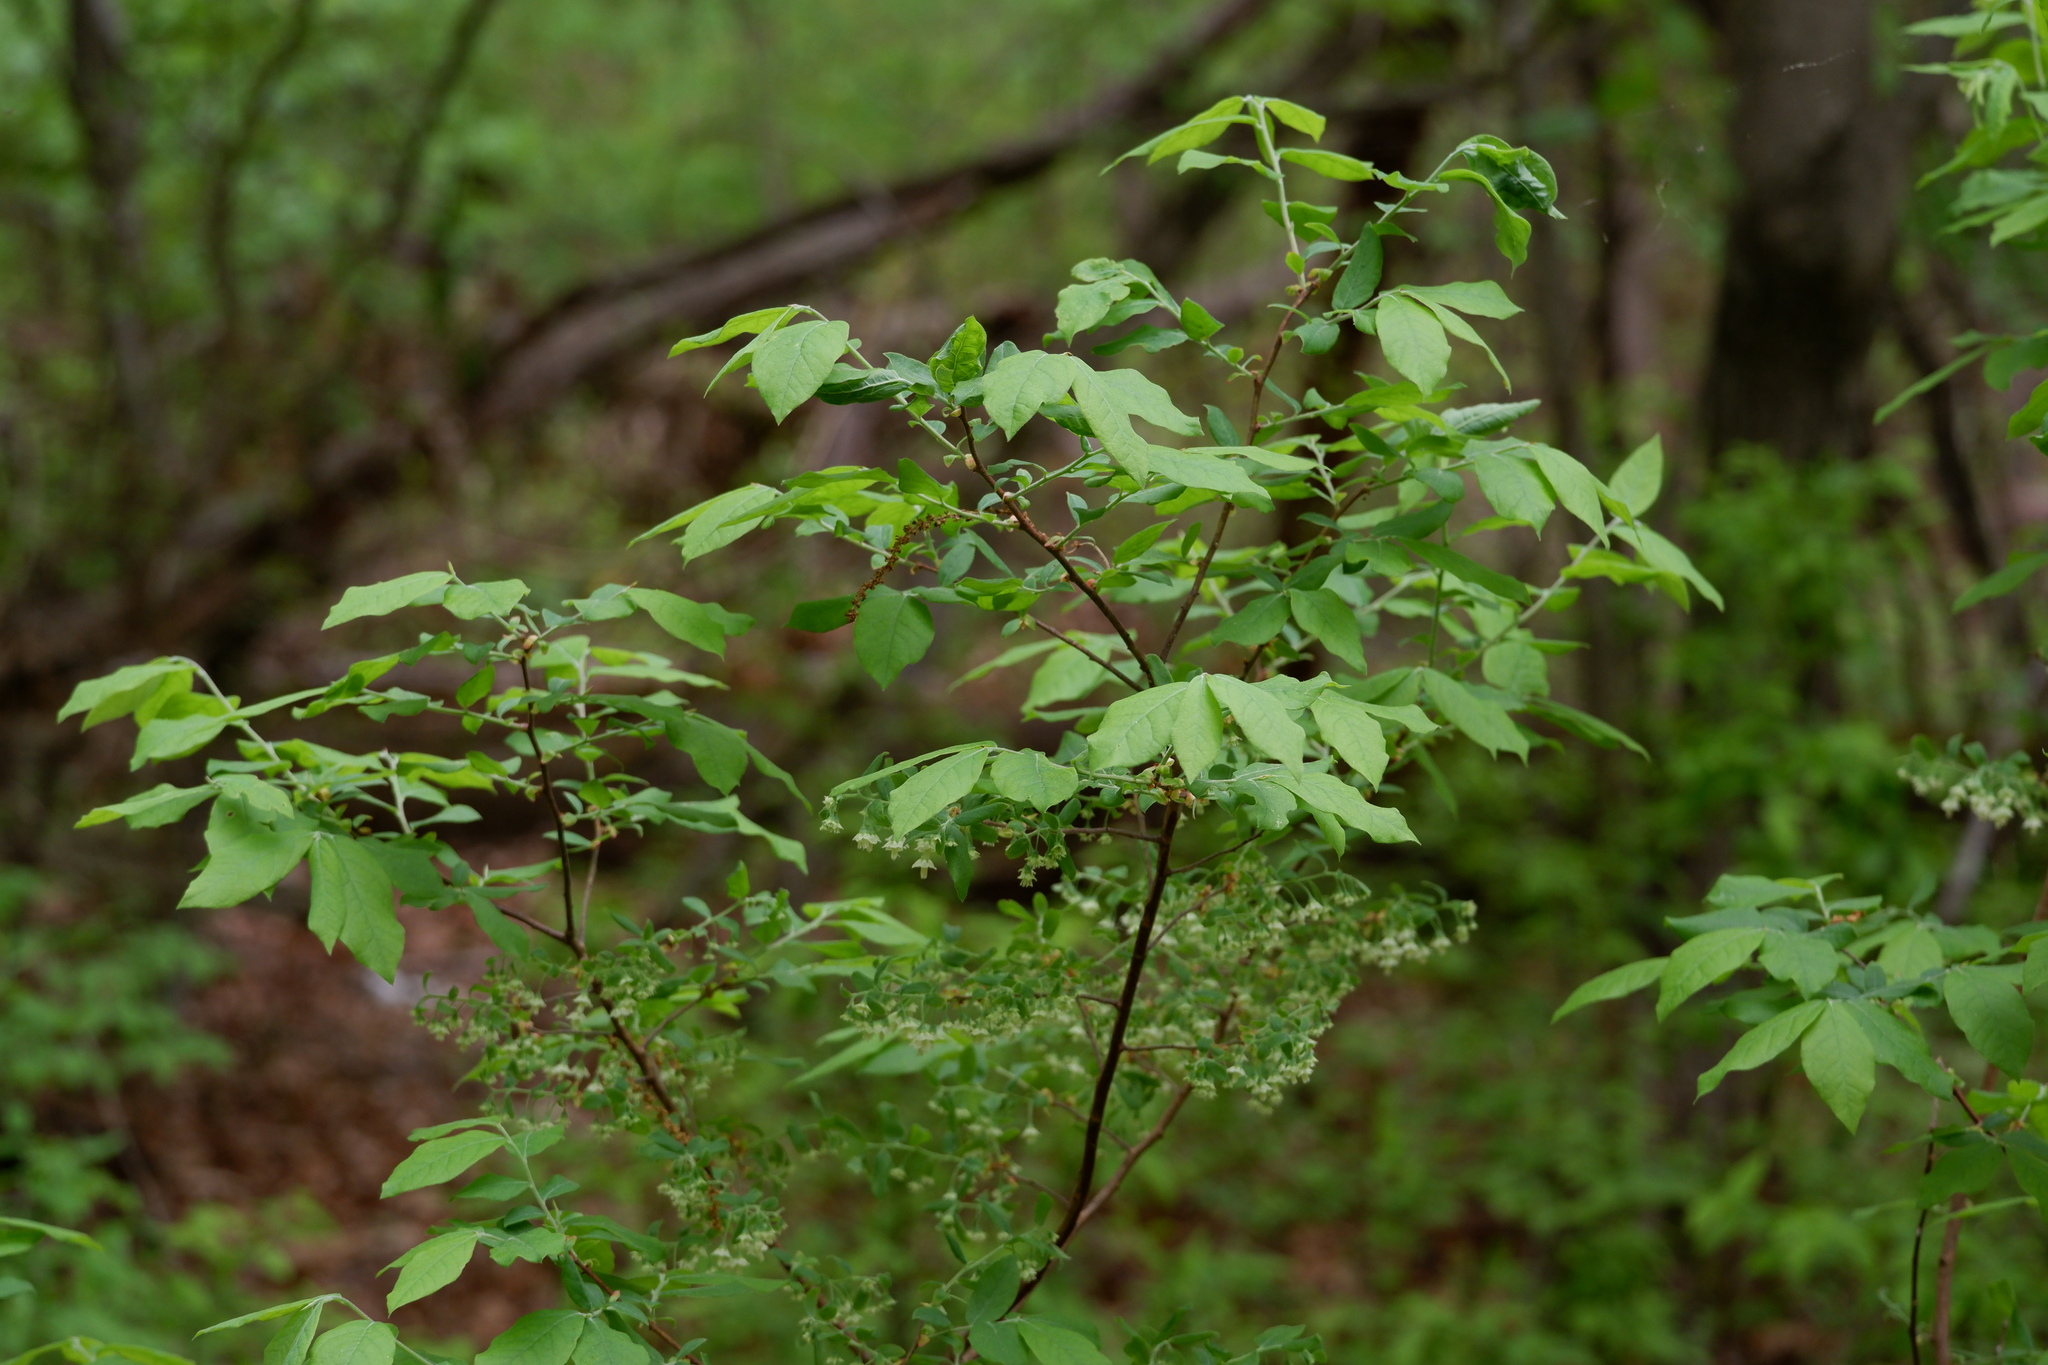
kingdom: Plantae
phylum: Tracheophyta
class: Magnoliopsida
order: Ericales
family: Ericaceae
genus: Vaccinium
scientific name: Vaccinium stamineum
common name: Deerberry
